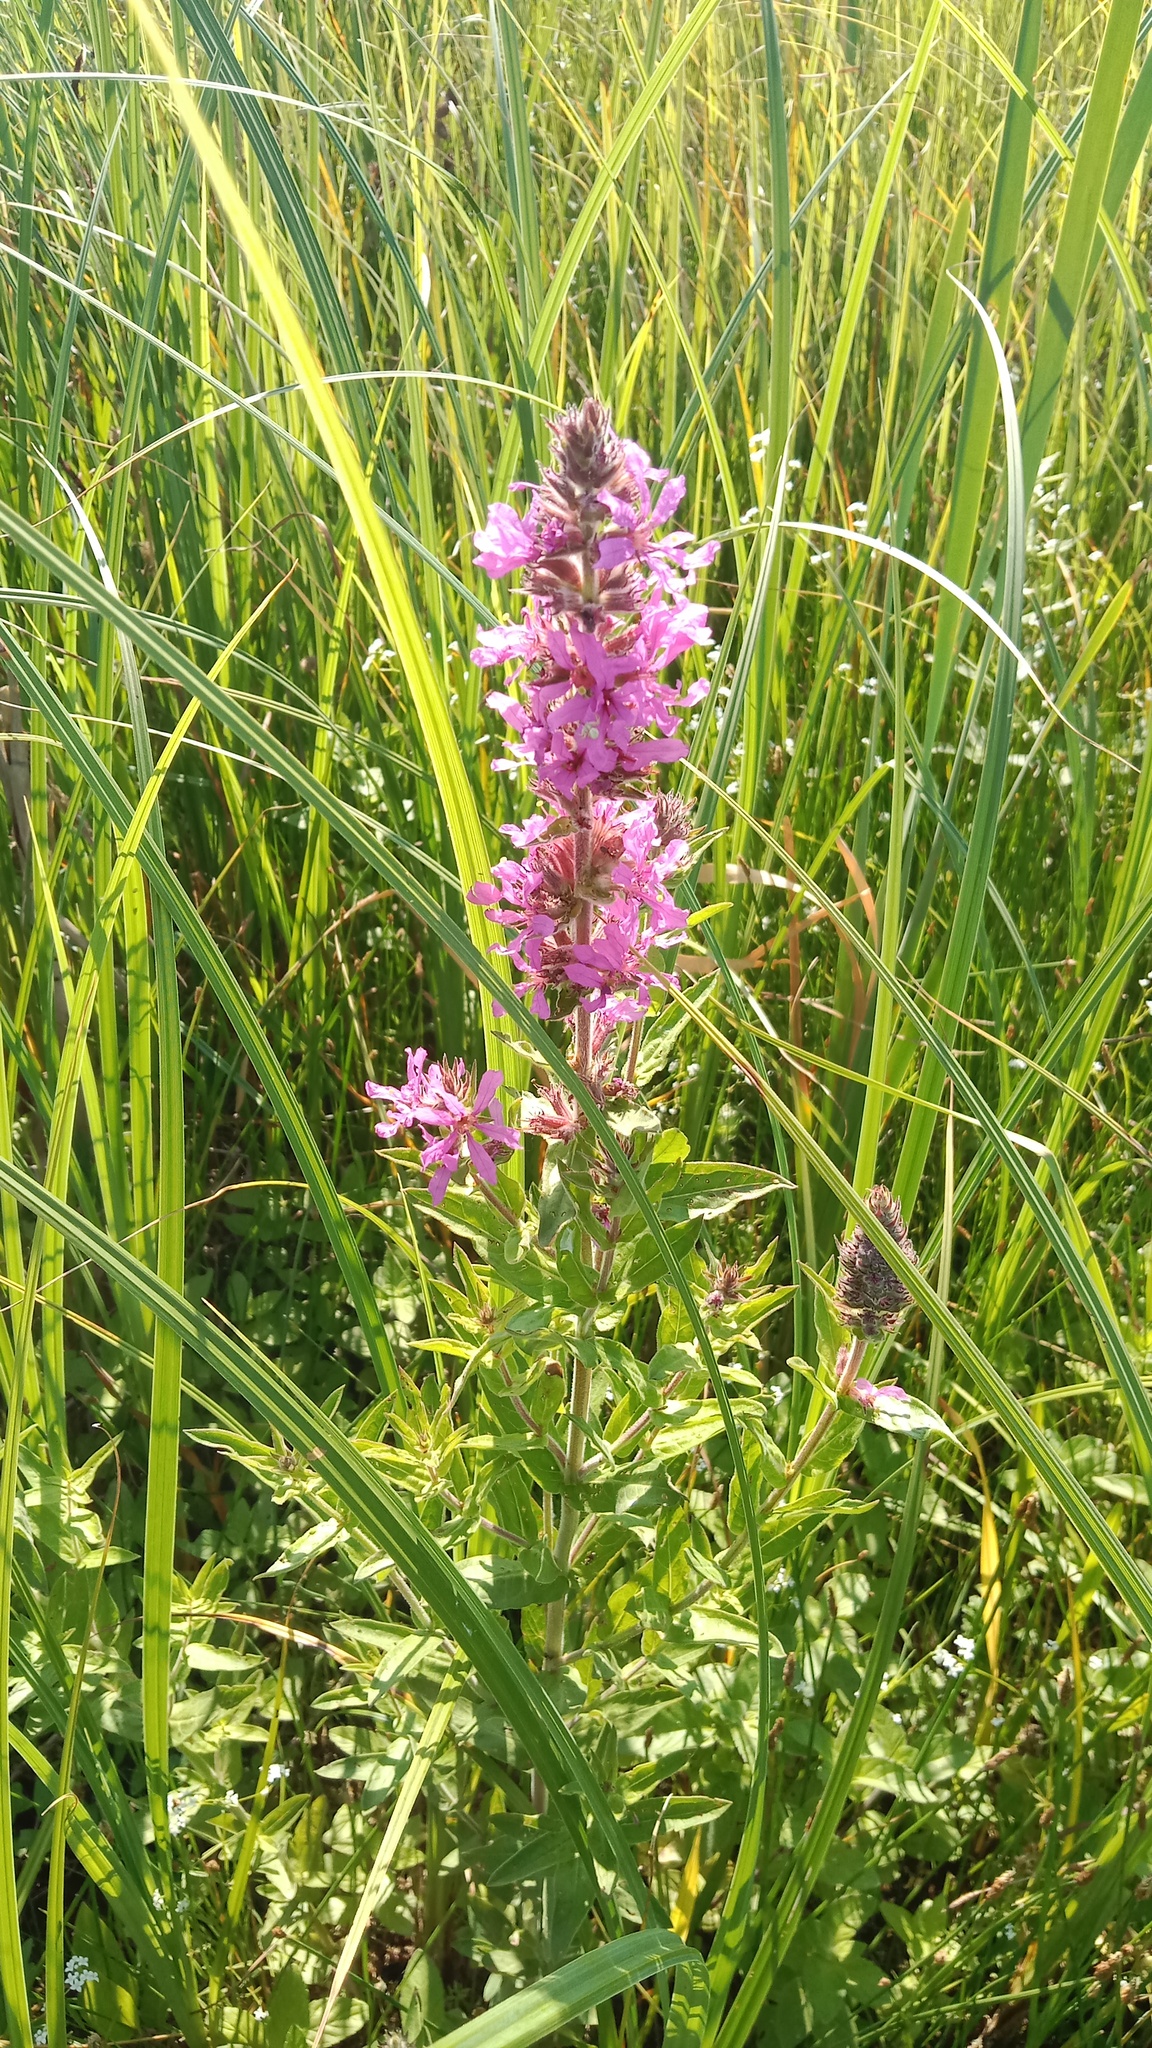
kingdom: Plantae
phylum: Tracheophyta
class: Magnoliopsida
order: Myrtales
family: Lythraceae
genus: Lythrum
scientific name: Lythrum salicaria
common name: Purple loosestrife
